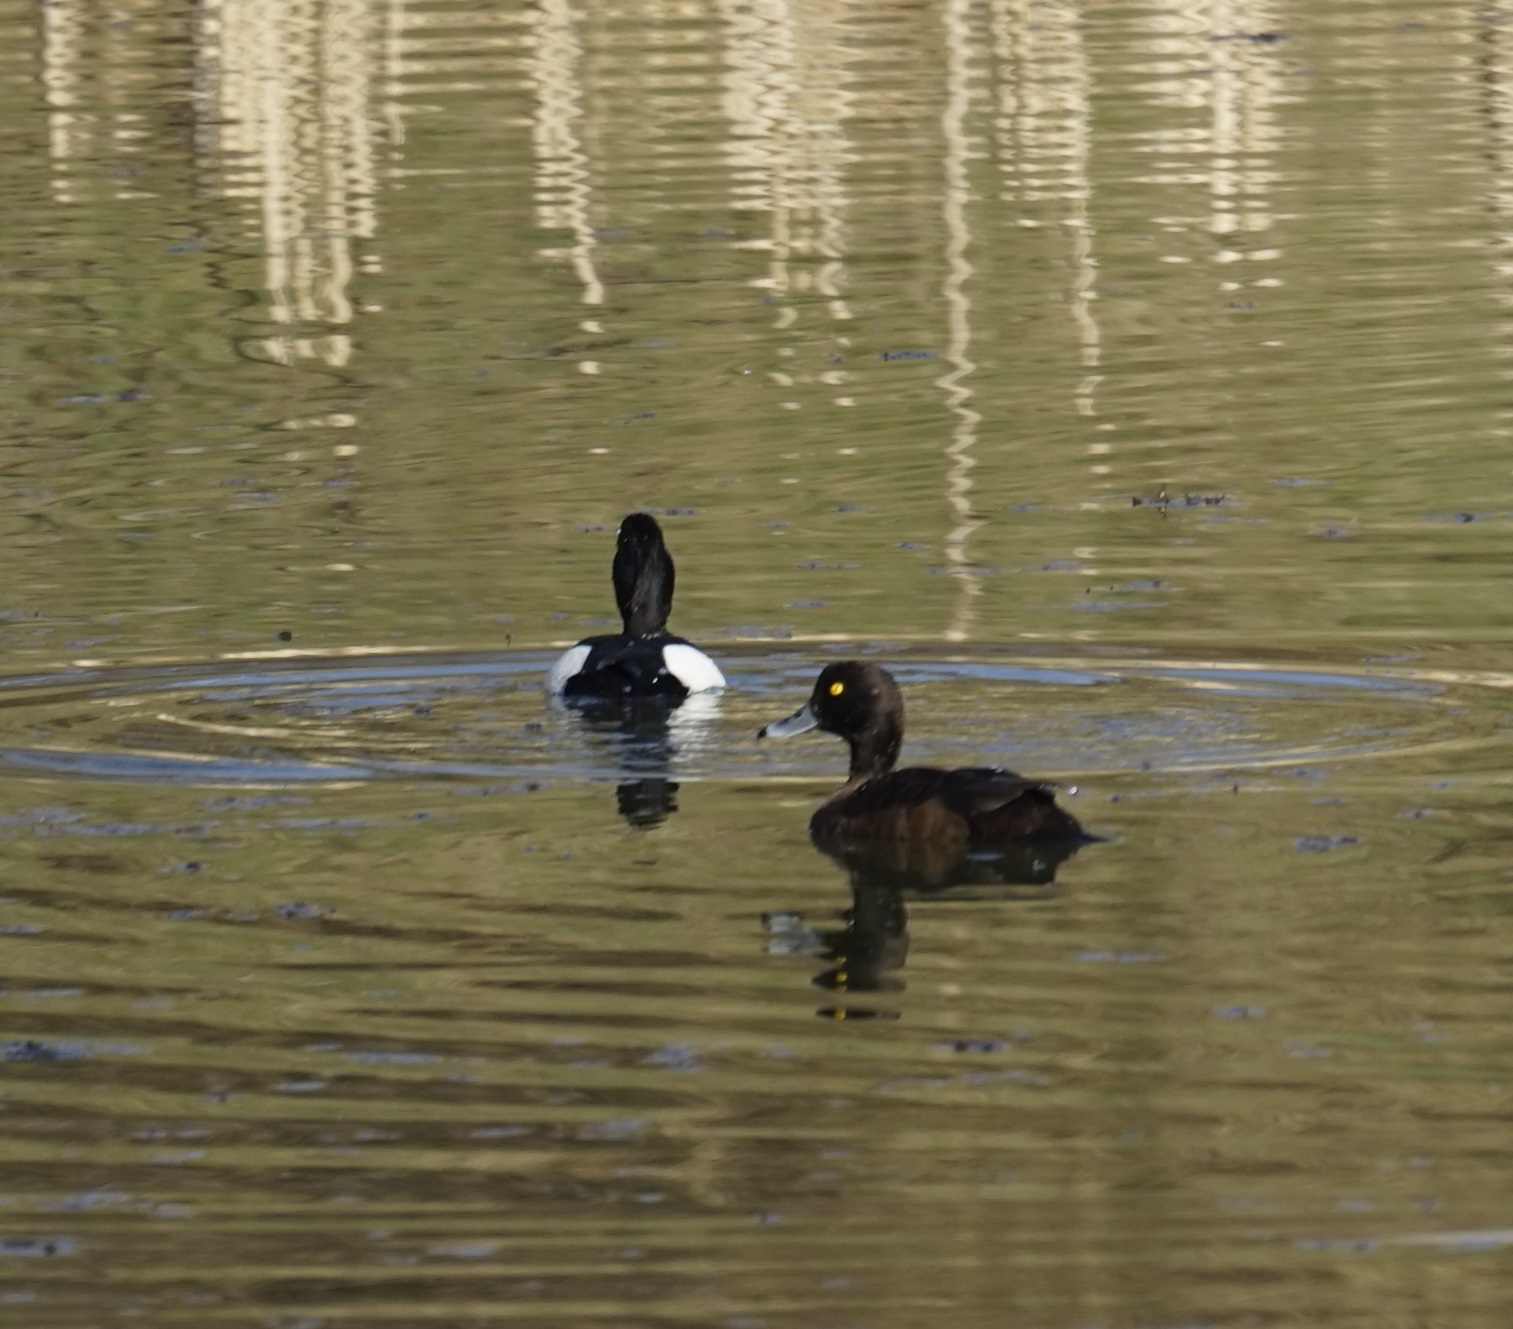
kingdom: Animalia
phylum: Chordata
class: Aves
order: Anseriformes
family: Anatidae
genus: Aythya
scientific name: Aythya fuligula
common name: Tufted duck
